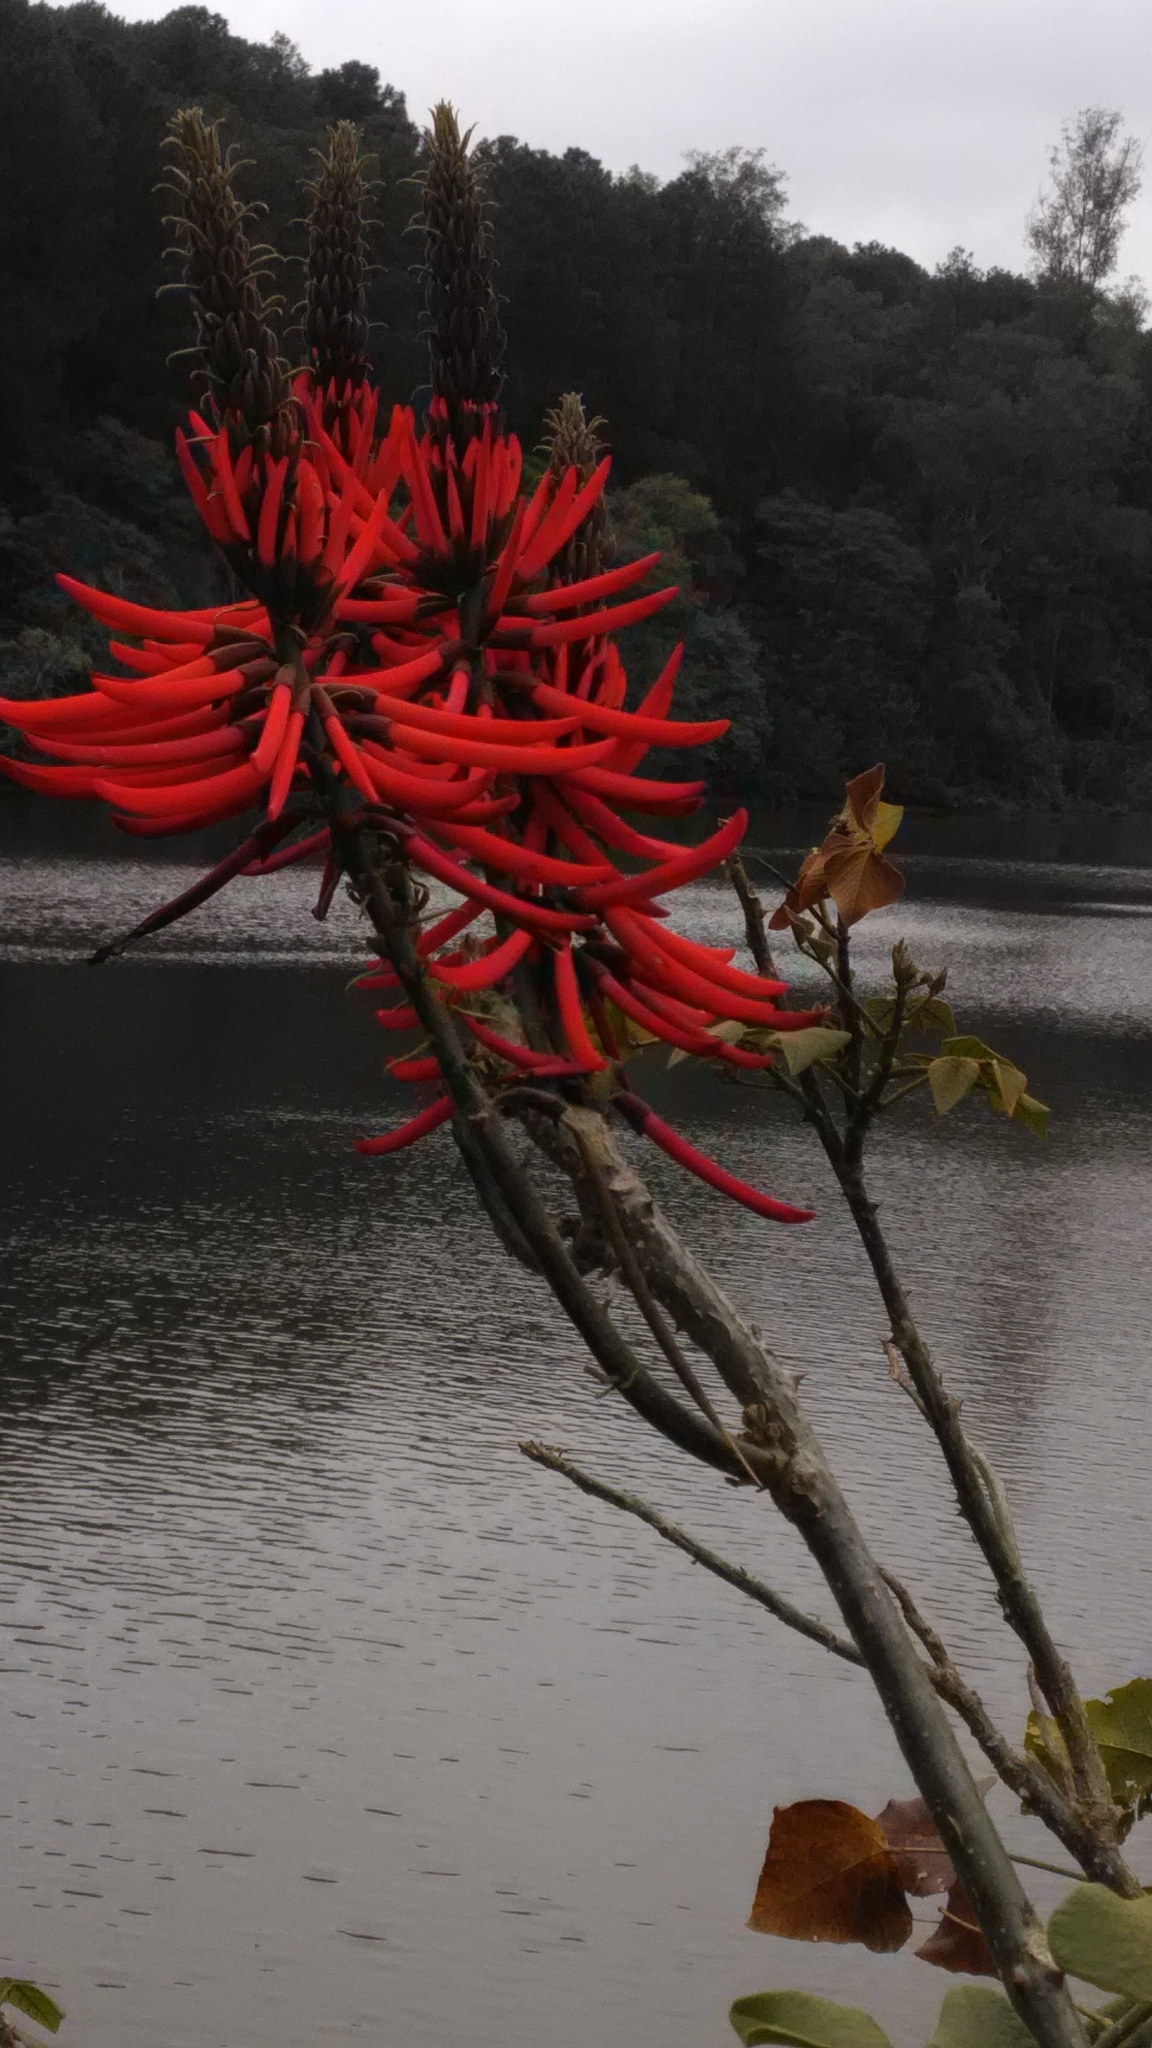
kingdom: Plantae
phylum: Tracheophyta
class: Magnoliopsida
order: Fabales
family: Fabaceae
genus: Erythrina
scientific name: Erythrina speciosa
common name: Coral tree
